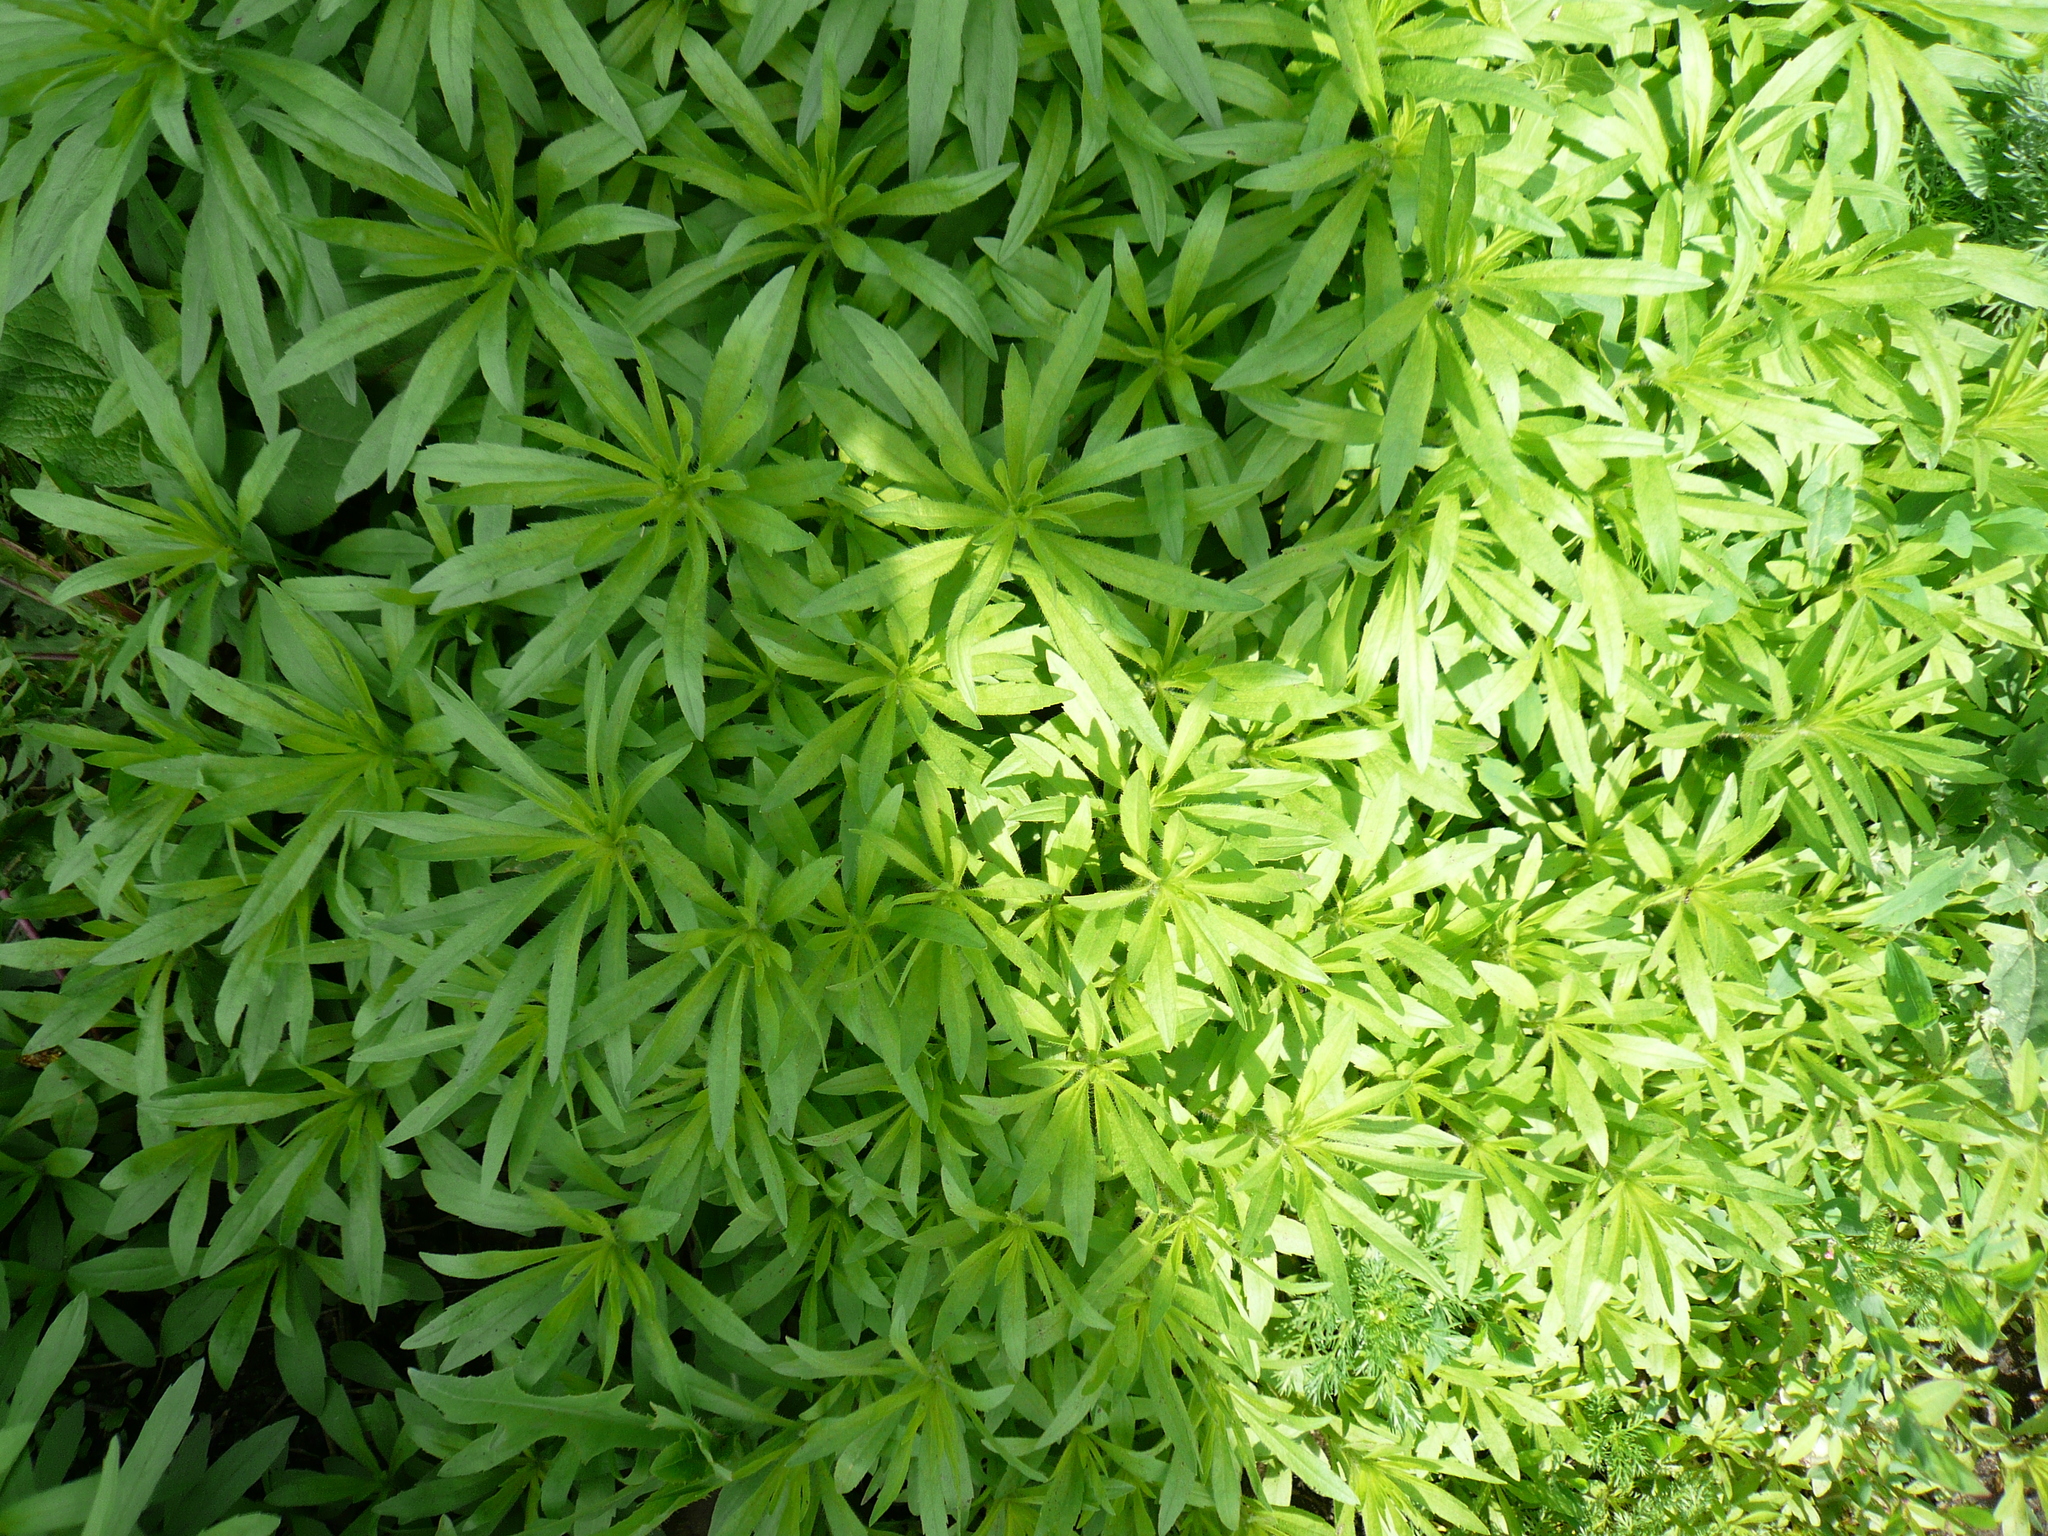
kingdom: Plantae
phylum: Tracheophyta
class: Magnoliopsida
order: Asterales
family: Asteraceae
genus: Erigeron
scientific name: Erigeron canadensis
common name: Canadian fleabane
